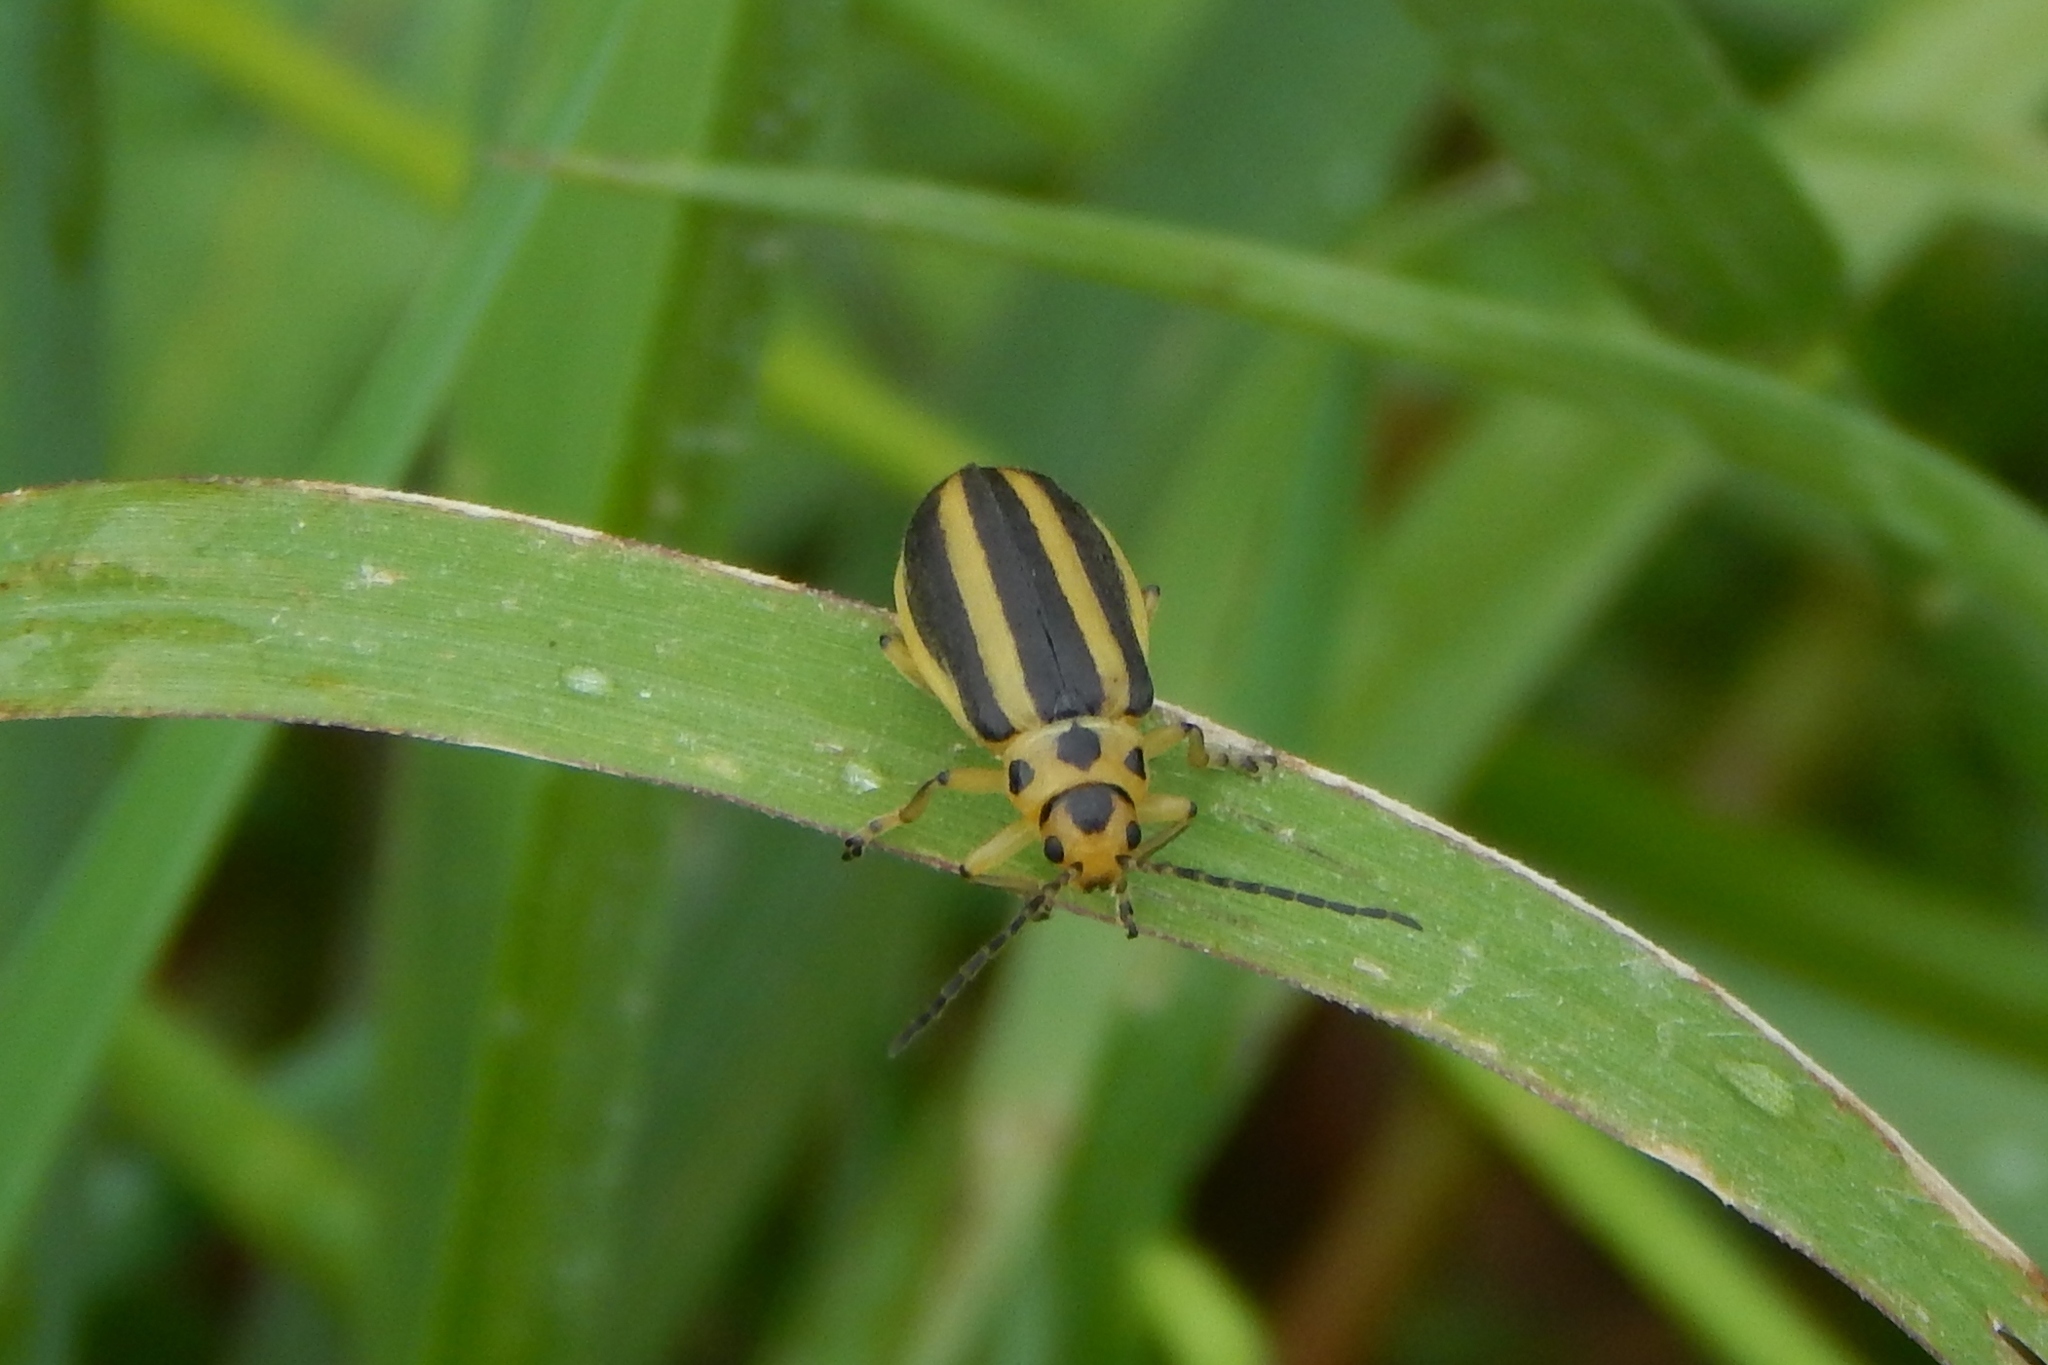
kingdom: Animalia
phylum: Arthropoda
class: Insecta
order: Coleoptera
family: Chrysomelidae
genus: Trirhabda
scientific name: Trirhabda adela
